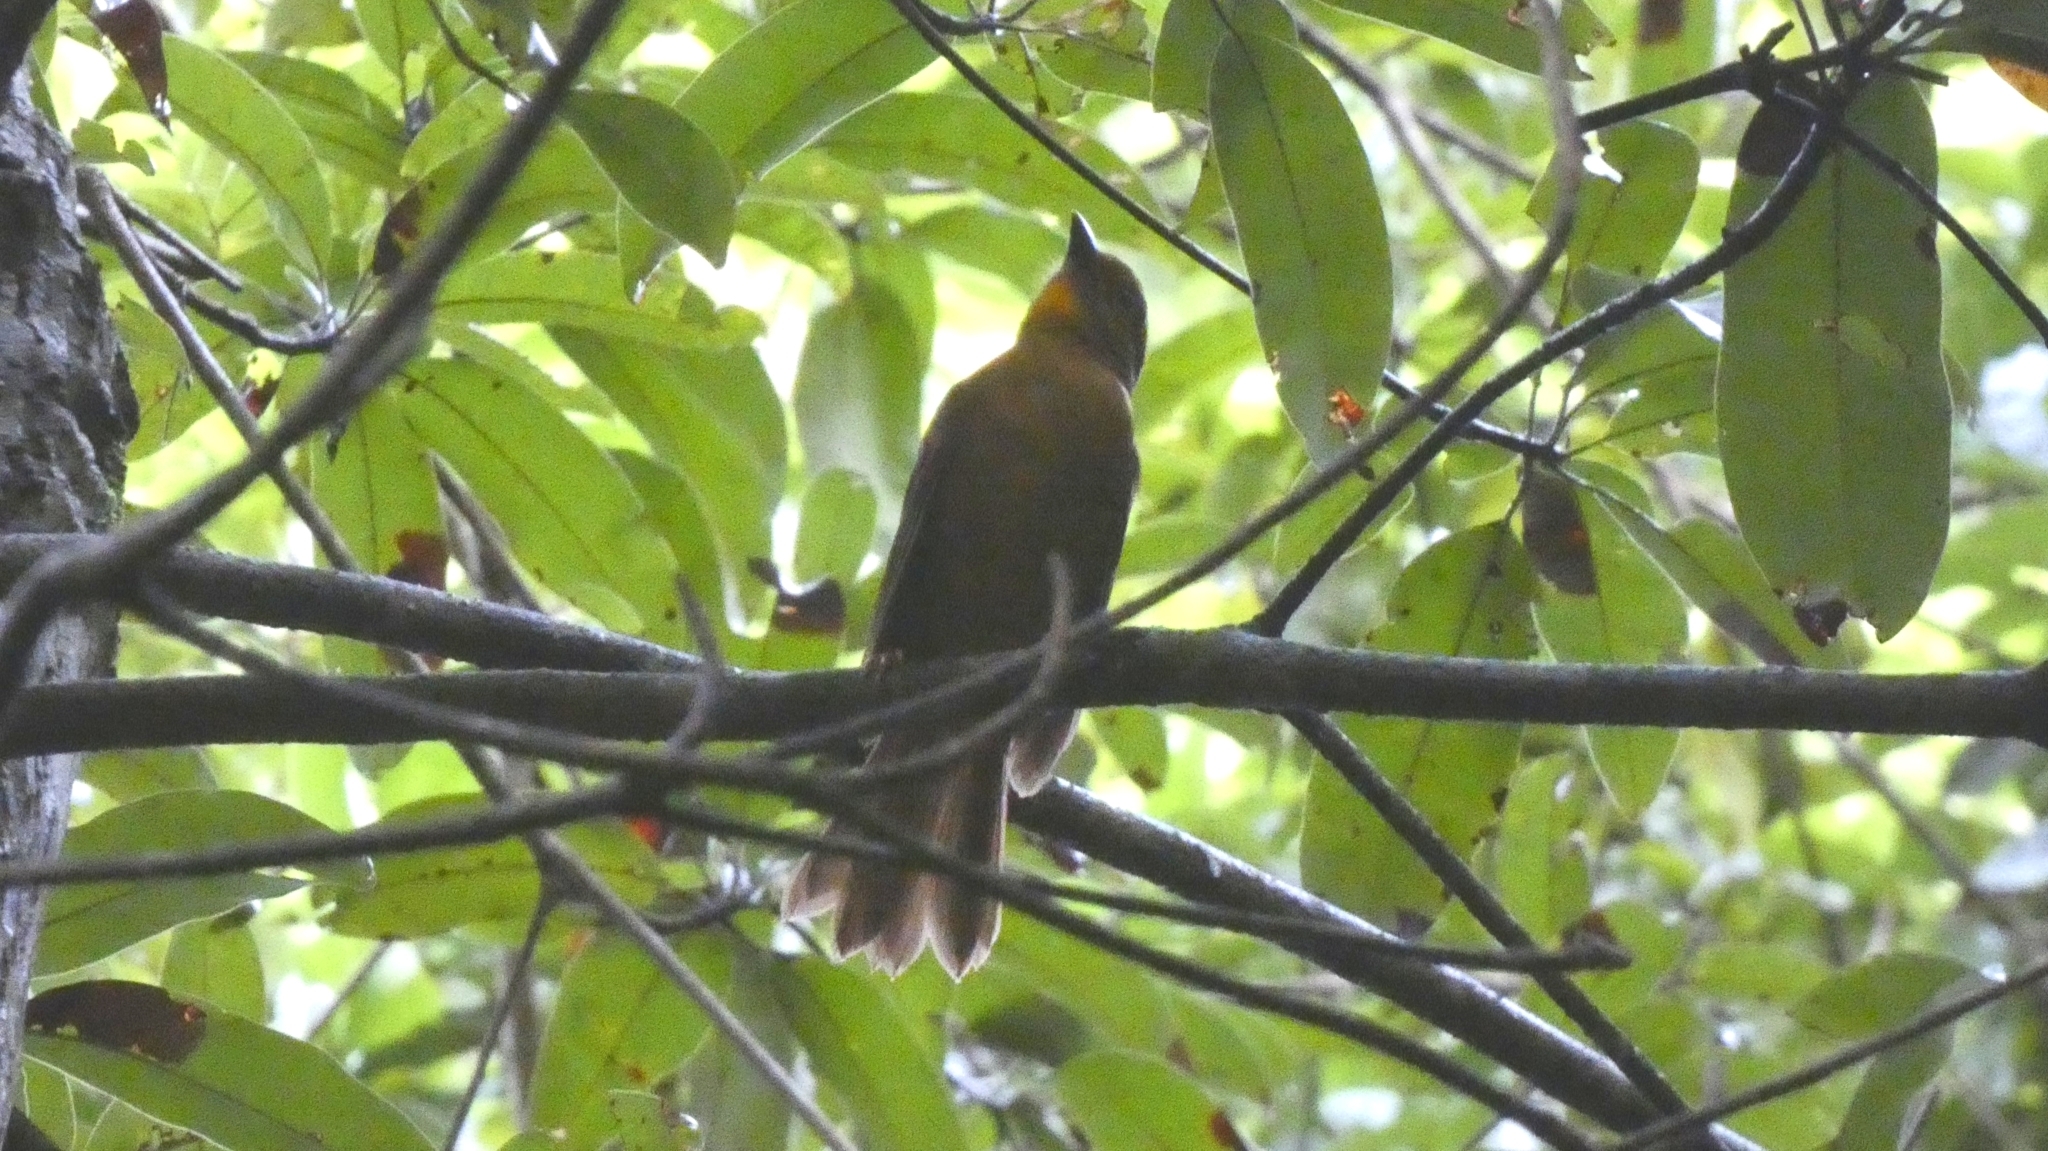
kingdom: Animalia
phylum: Chordata
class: Aves
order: Passeriformes
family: Cardinalidae
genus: Habia
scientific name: Habia fuscicauda
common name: Red-throated ant-tanager
